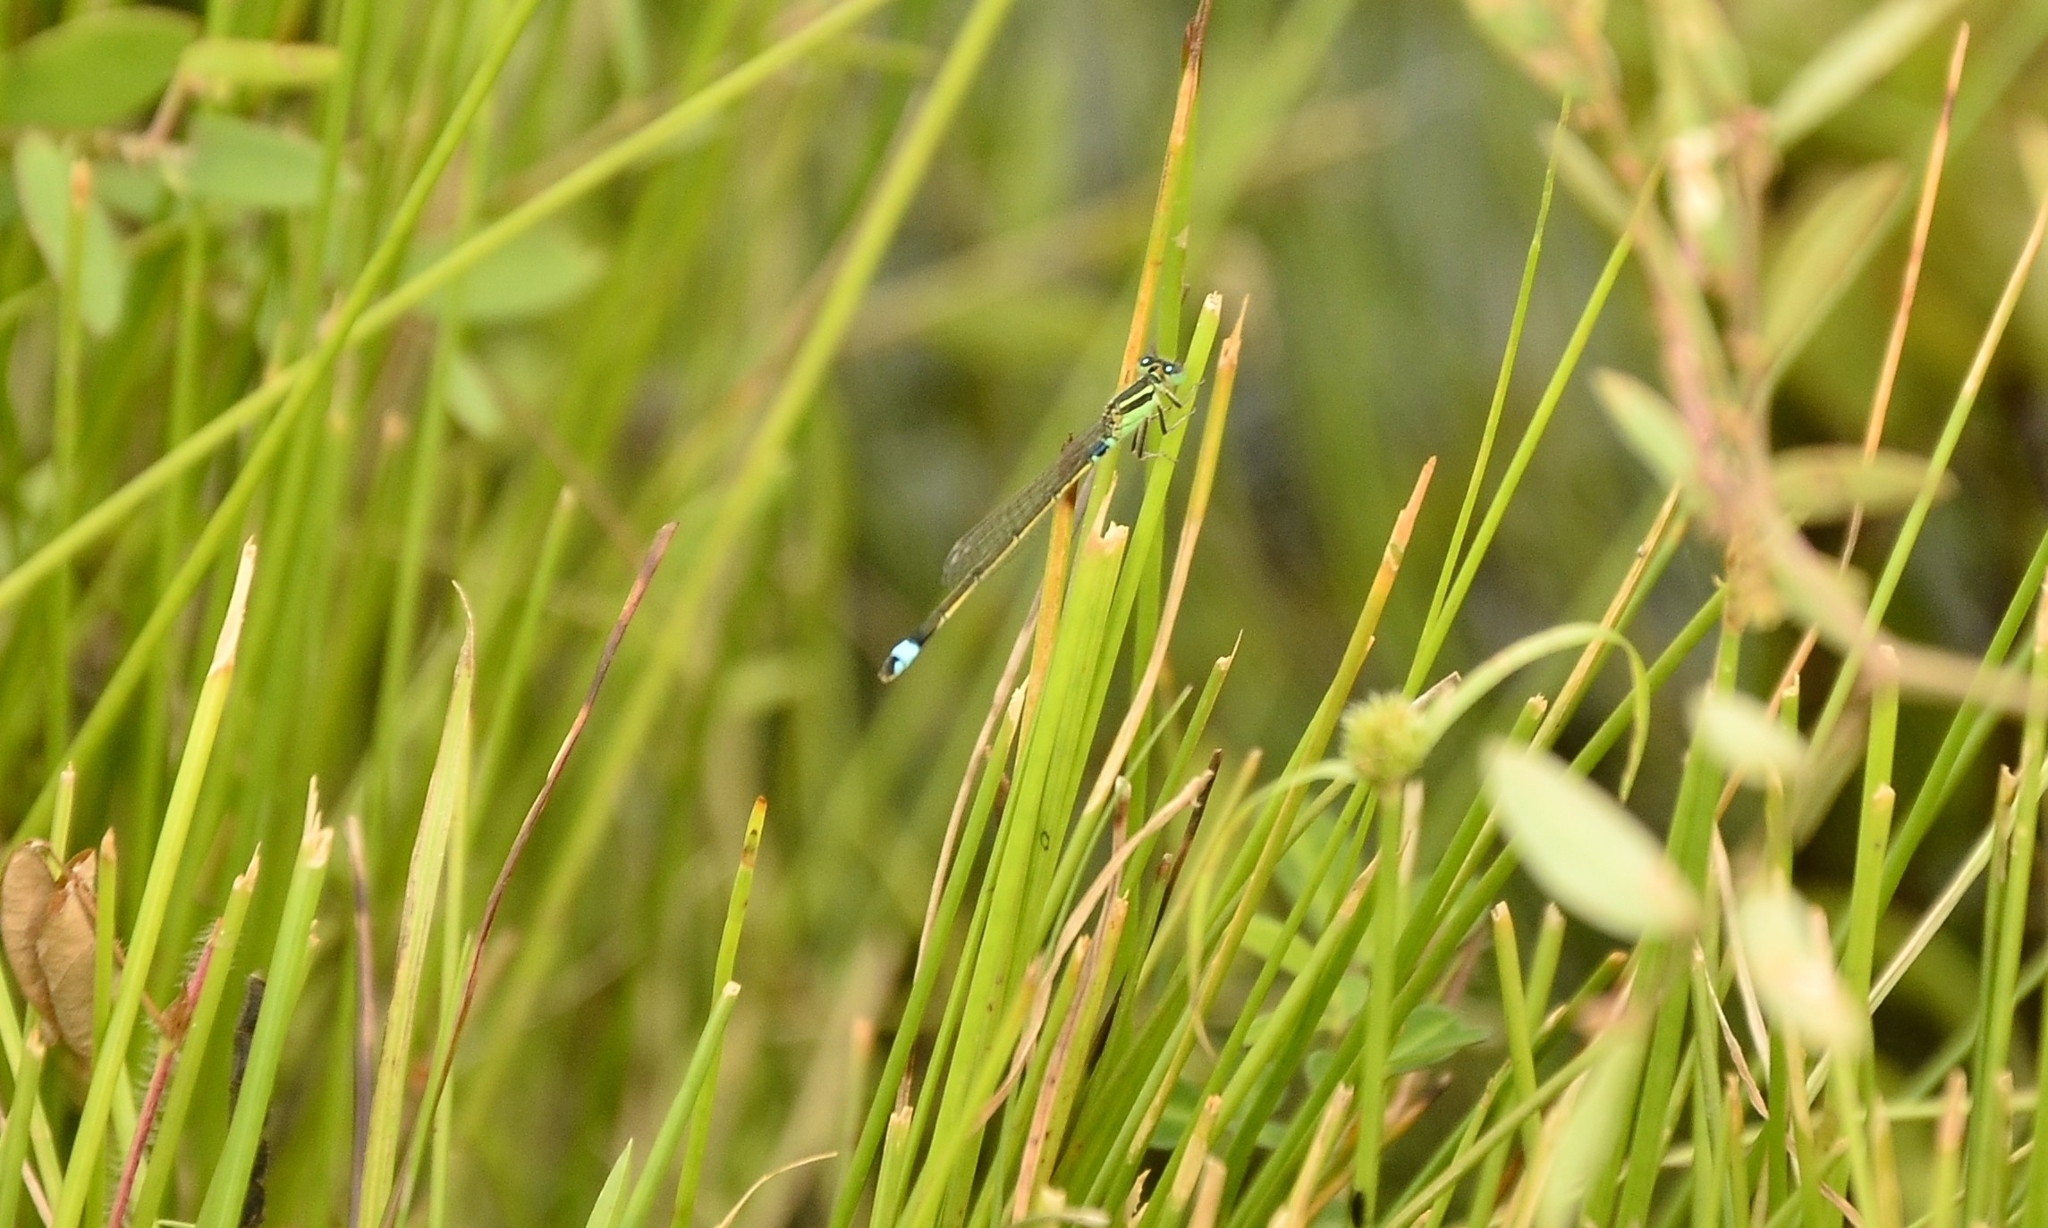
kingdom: Animalia
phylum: Arthropoda
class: Insecta
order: Odonata
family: Coenagrionidae
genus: Ischnura
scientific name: Ischnura senegalensis
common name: Tropical bluetail
